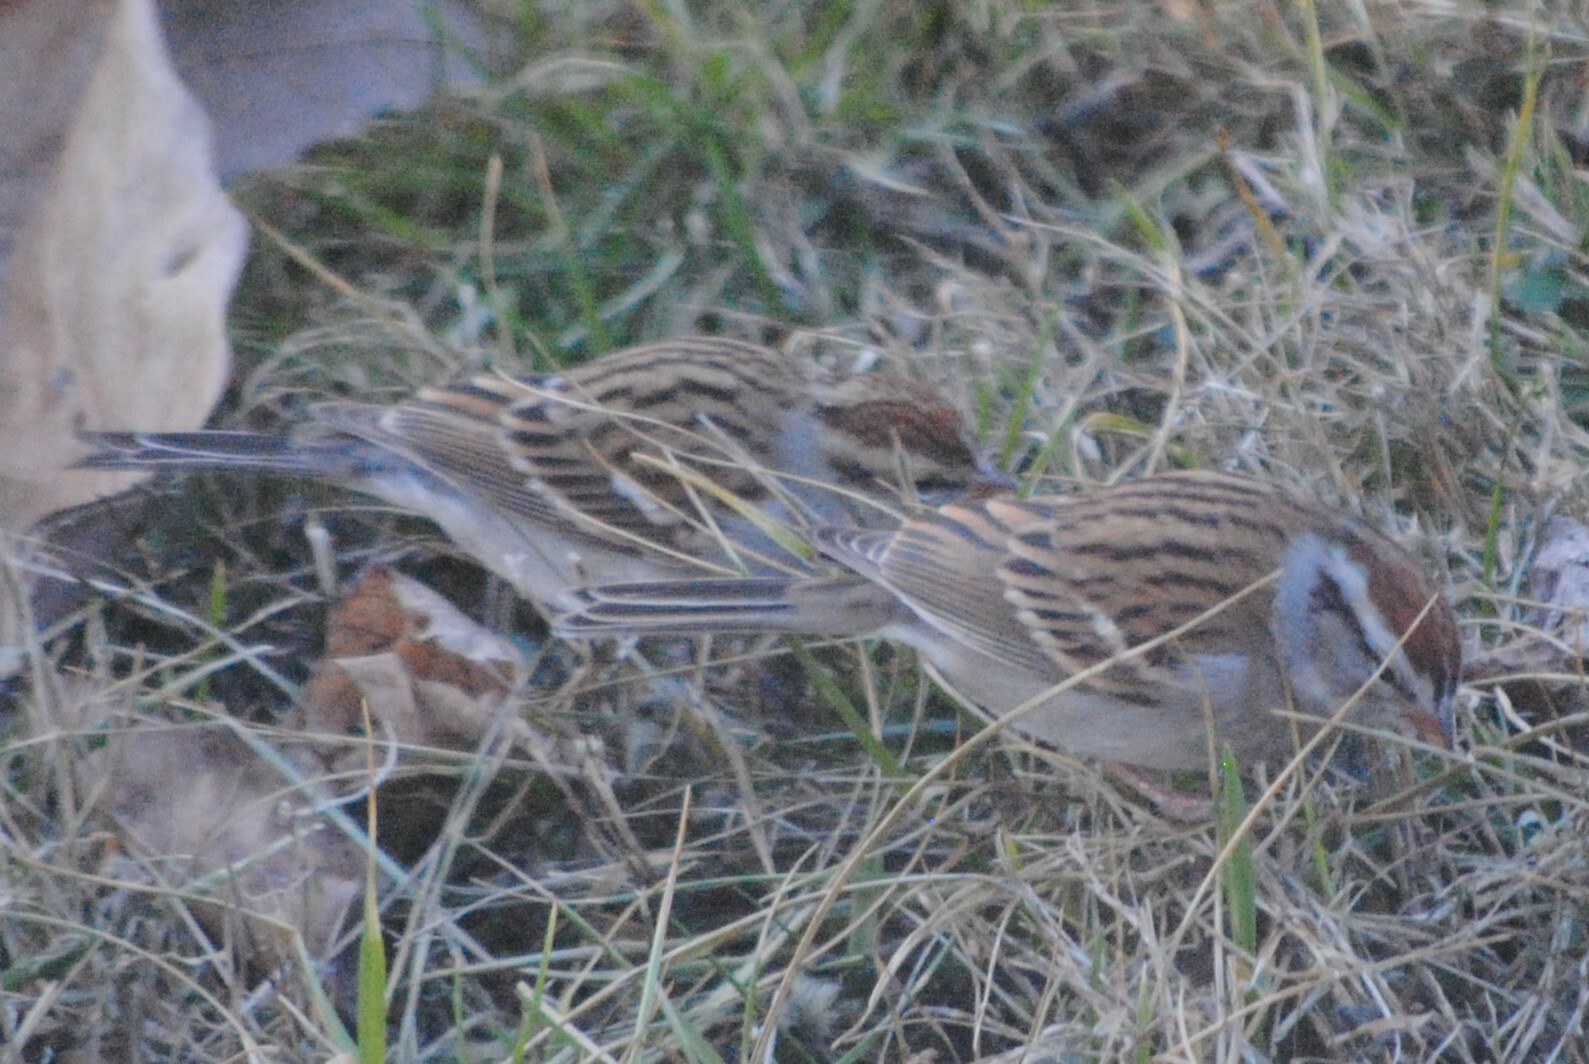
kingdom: Animalia
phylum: Chordata
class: Aves
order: Passeriformes
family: Passerellidae
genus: Spizella
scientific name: Spizella passerina
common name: Chipping sparrow
